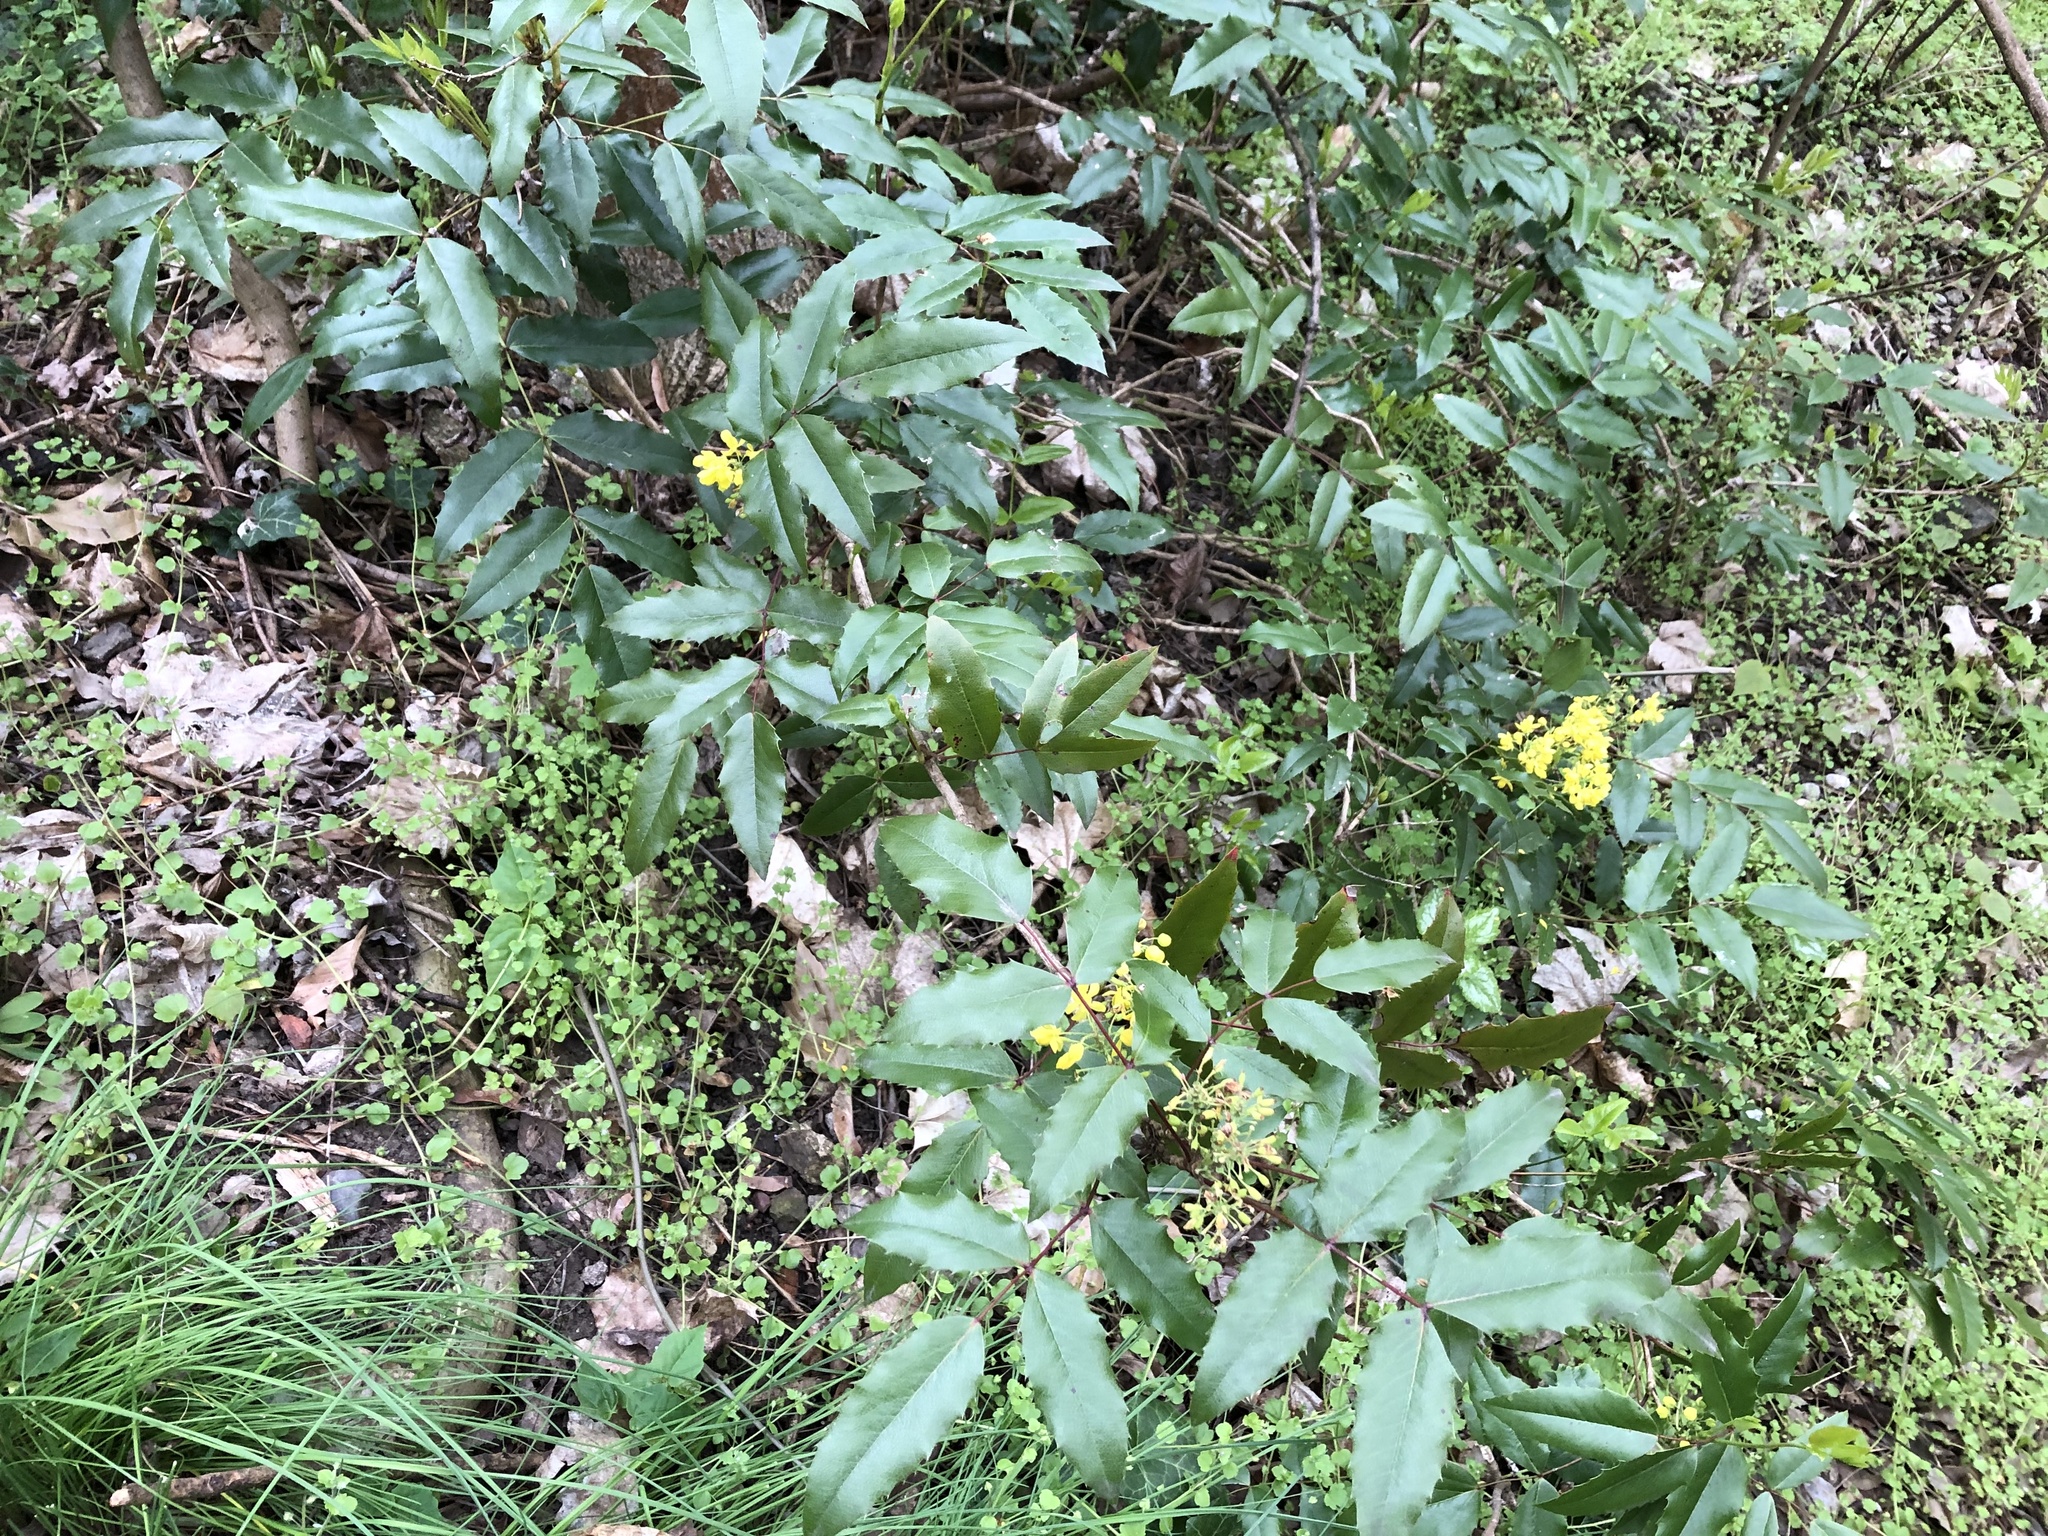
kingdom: Plantae
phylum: Tracheophyta
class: Magnoliopsida
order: Ranunculales
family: Berberidaceae
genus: Mahonia
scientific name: Mahonia aquifolium
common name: Oregon-grape
